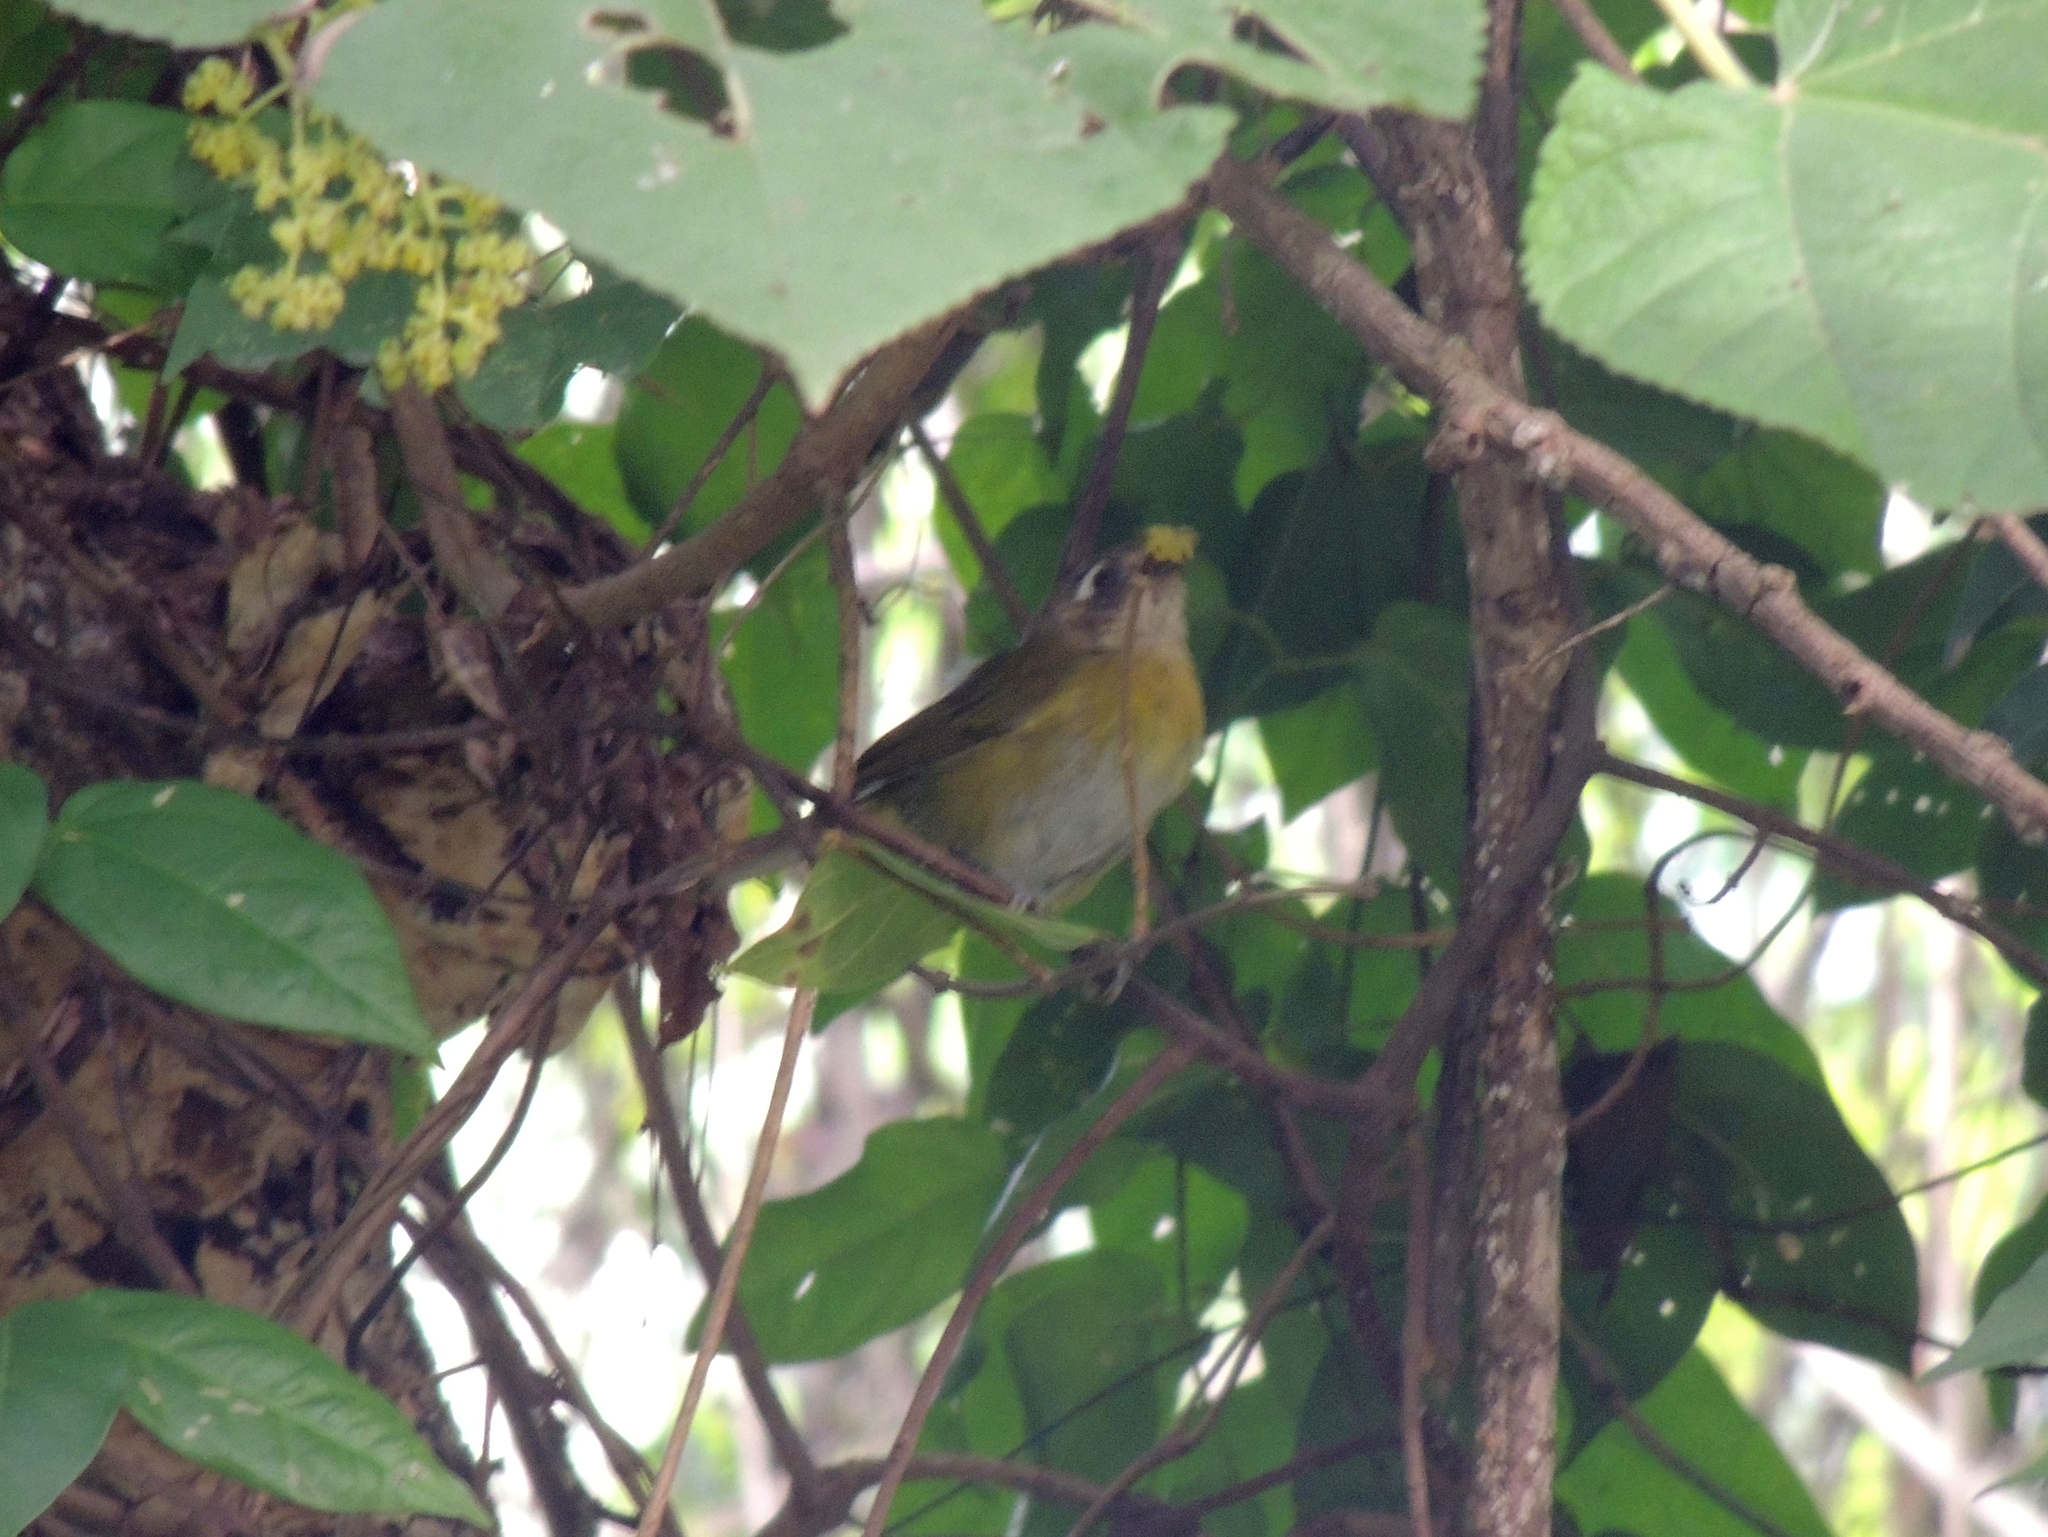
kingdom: Animalia
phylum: Chordata
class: Aves
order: Passeriformes
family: Passerellidae
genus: Chlorospingus
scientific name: Chlorospingus flavopectus
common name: Common chlorospingus
